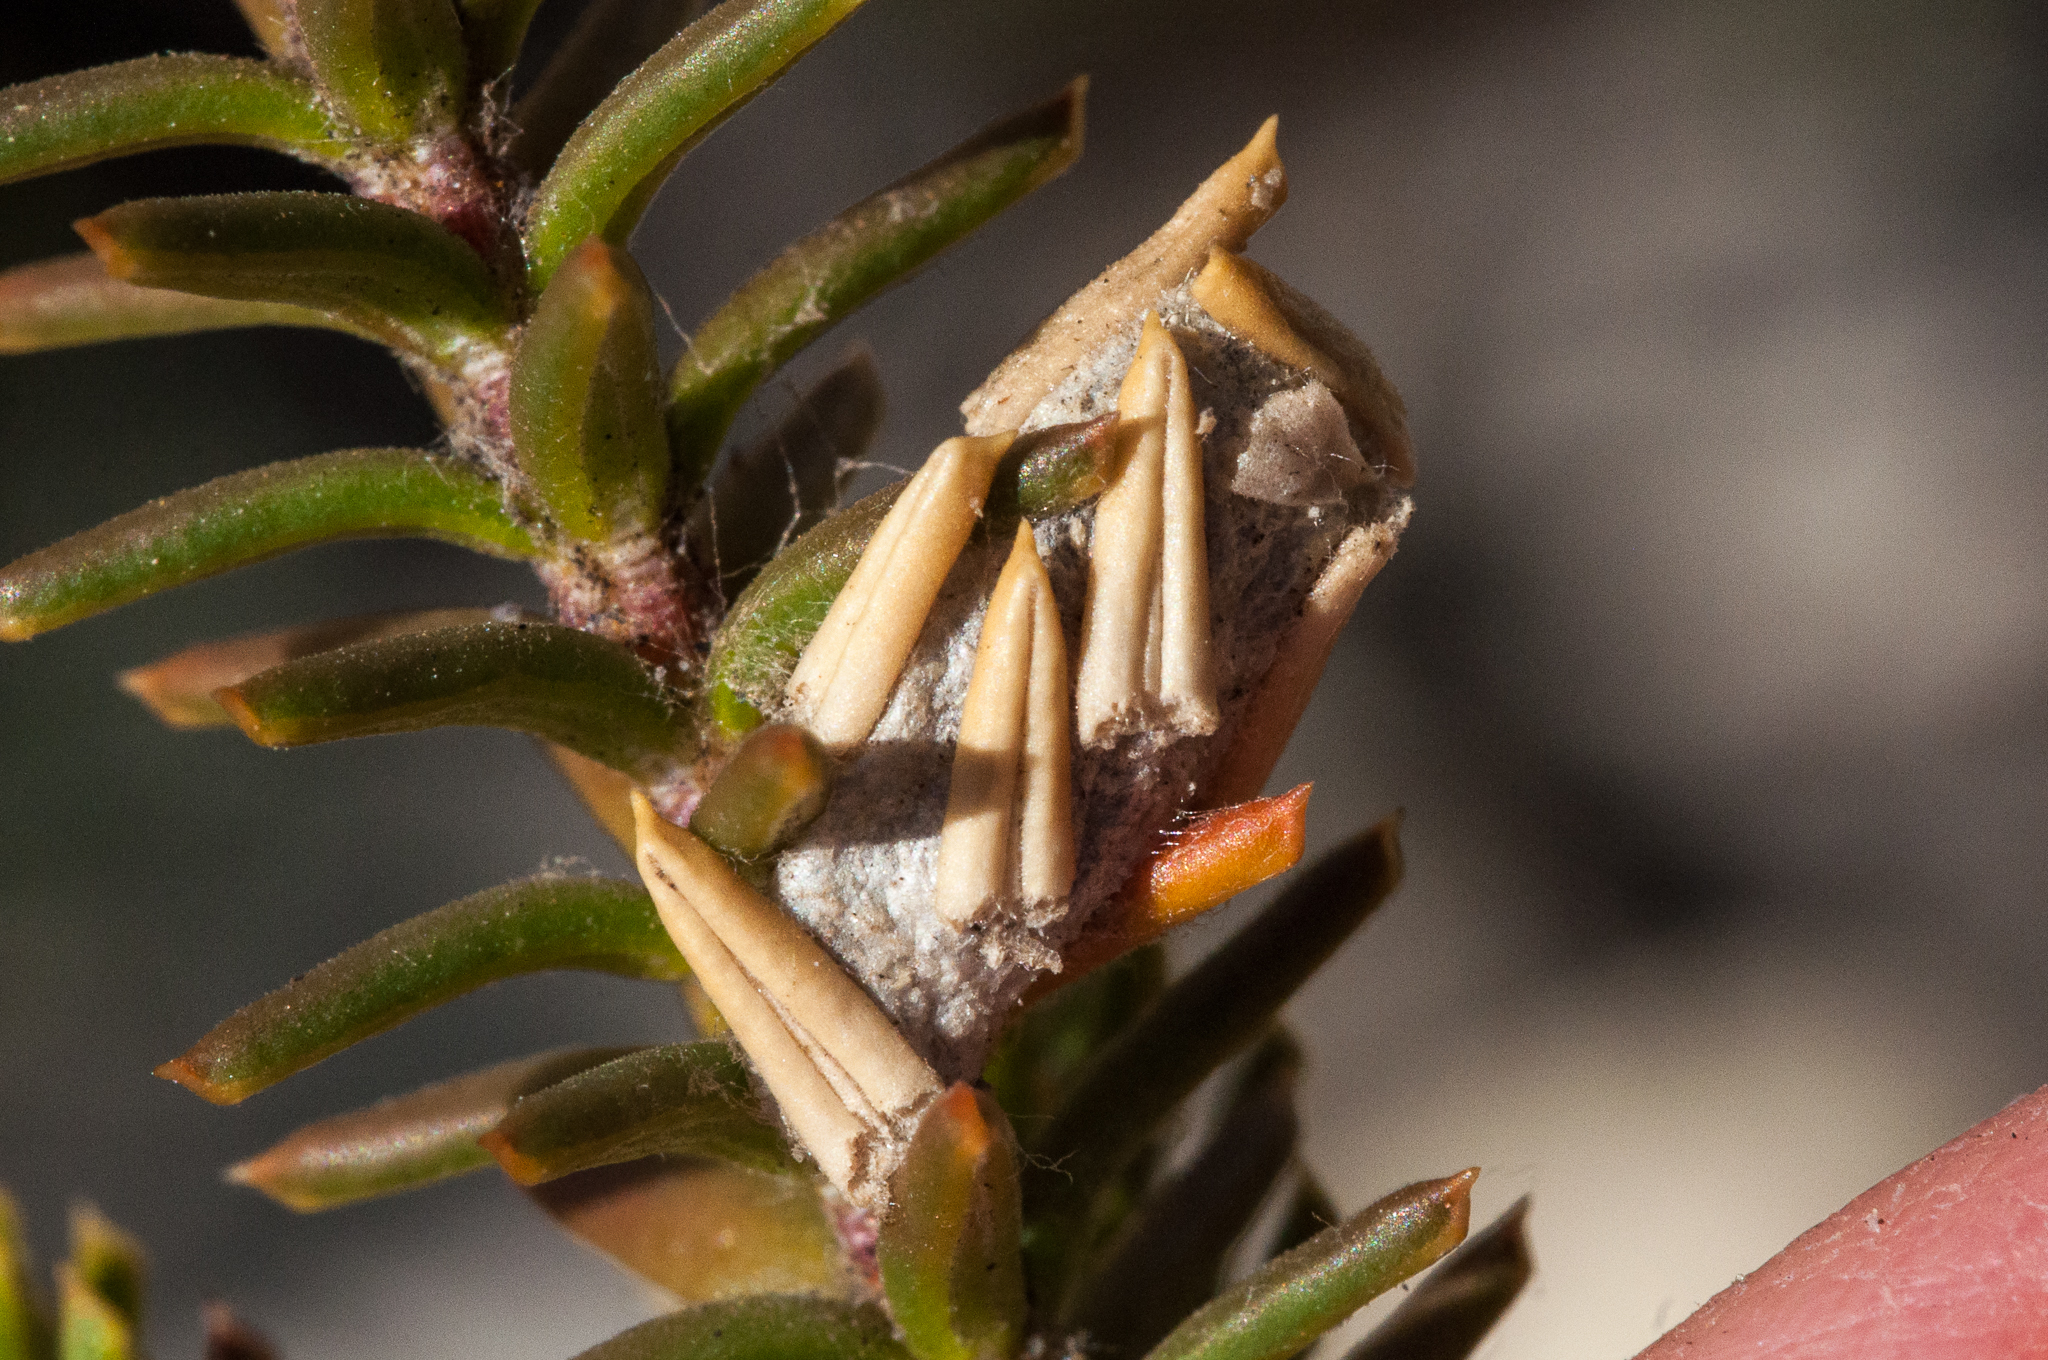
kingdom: Animalia
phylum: Arthropoda
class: Insecta
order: Lepidoptera
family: Noctuidae
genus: Metachrostis
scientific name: Metachrostis rubripuncta
